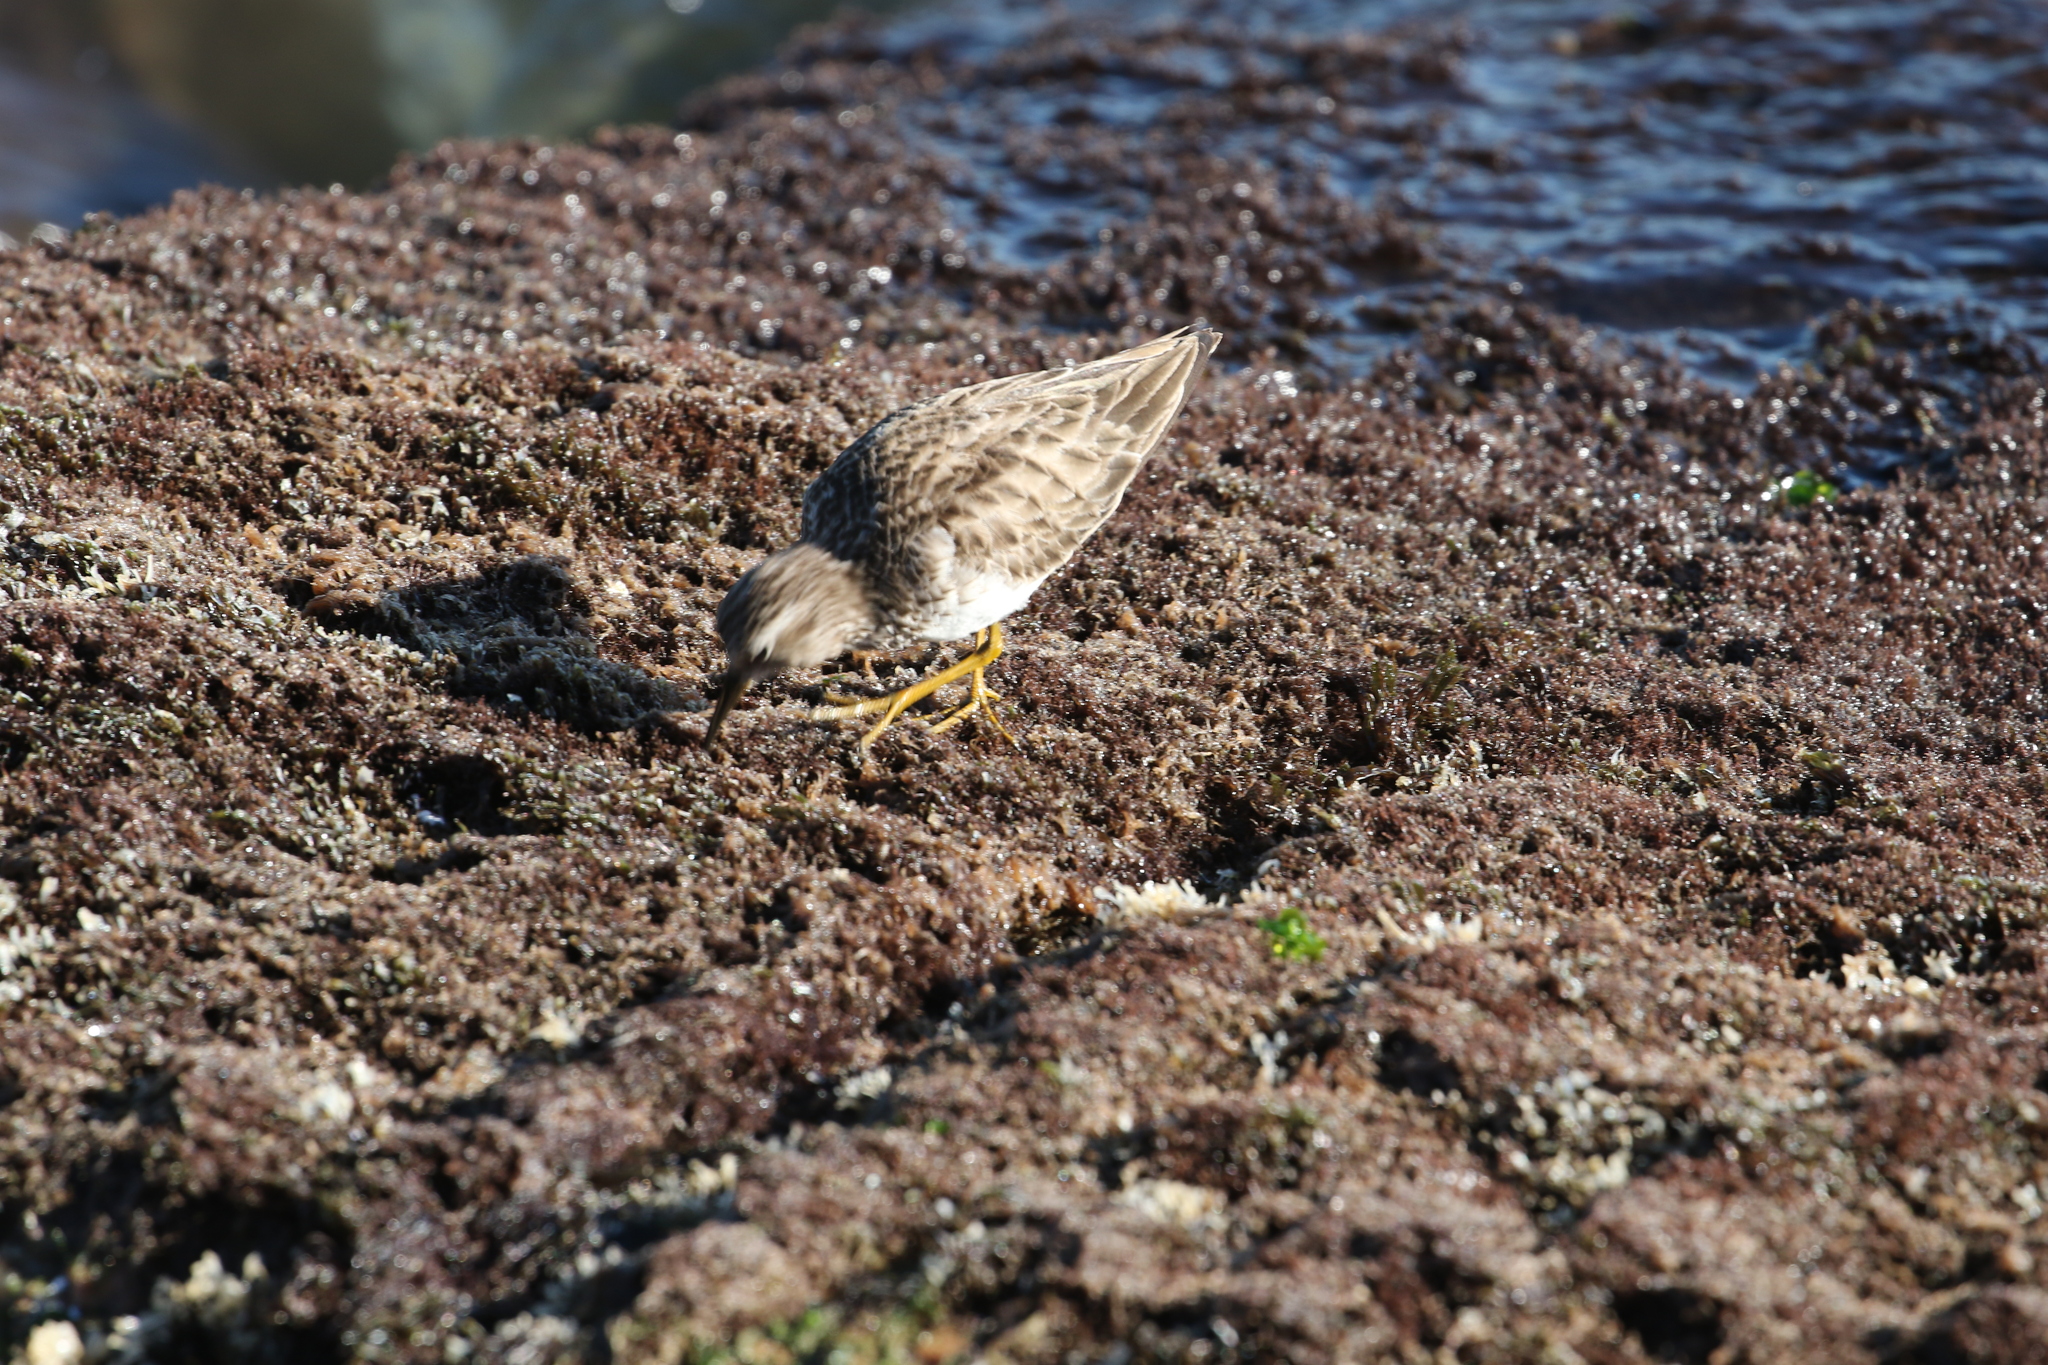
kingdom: Animalia
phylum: Chordata
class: Aves
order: Charadriiformes
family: Scolopacidae
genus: Calidris
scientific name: Calidris minutilla
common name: Least sandpiper
